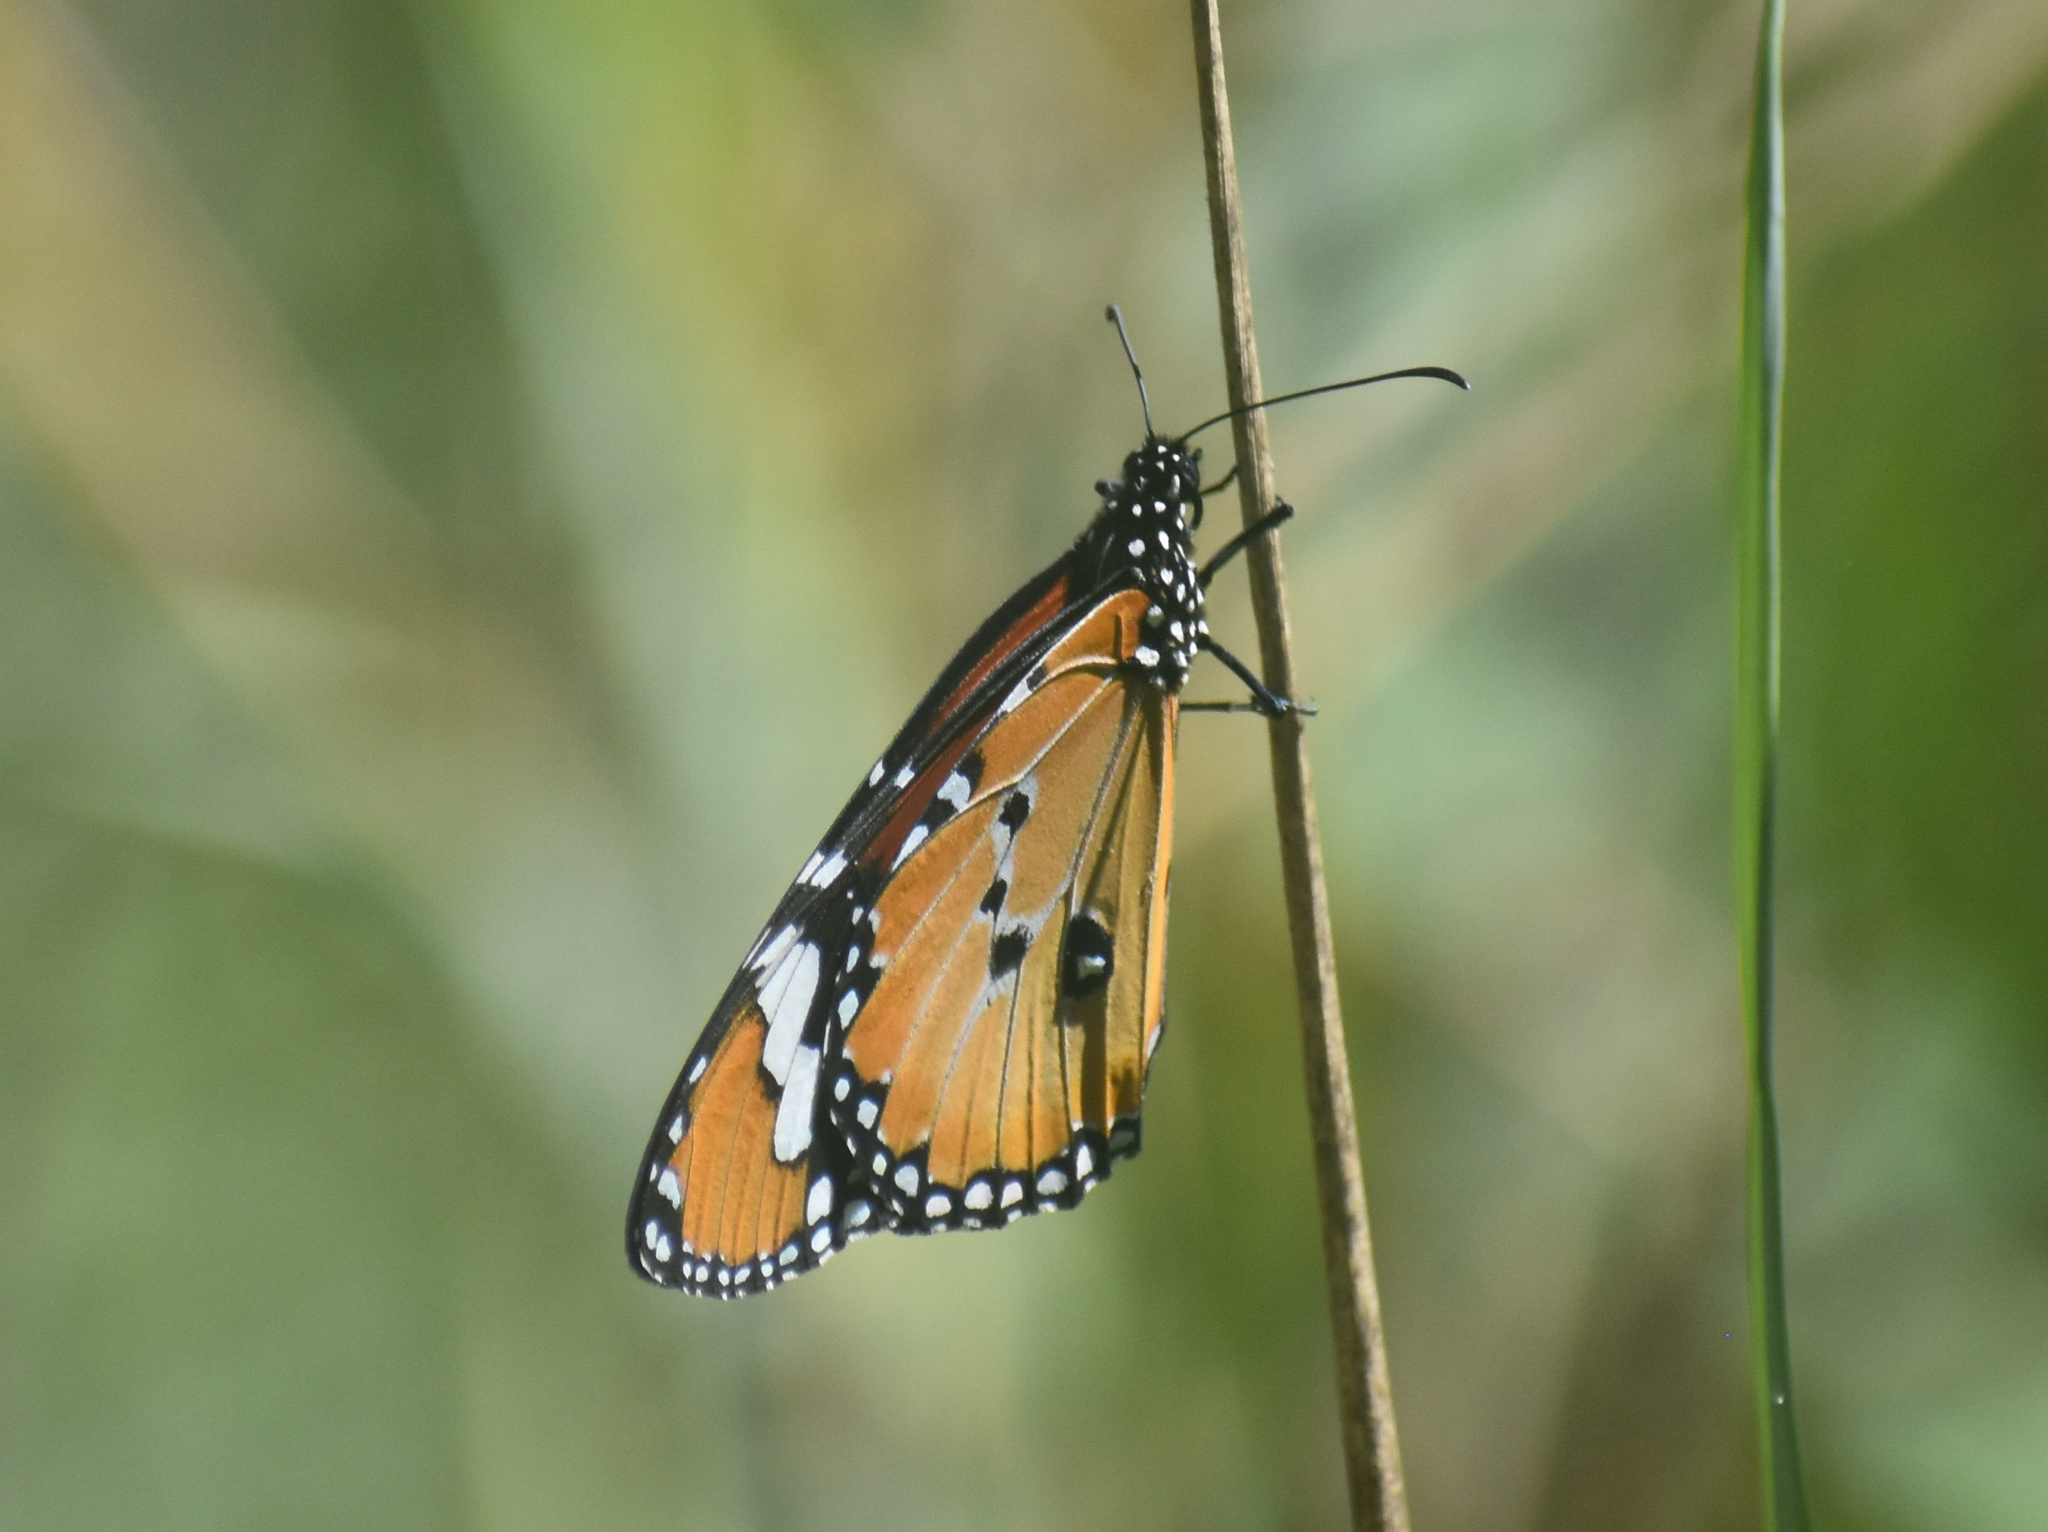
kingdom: Animalia
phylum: Arthropoda
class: Insecta
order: Lepidoptera
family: Nymphalidae
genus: Danaus
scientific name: Danaus chrysippus
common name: Plain tiger
